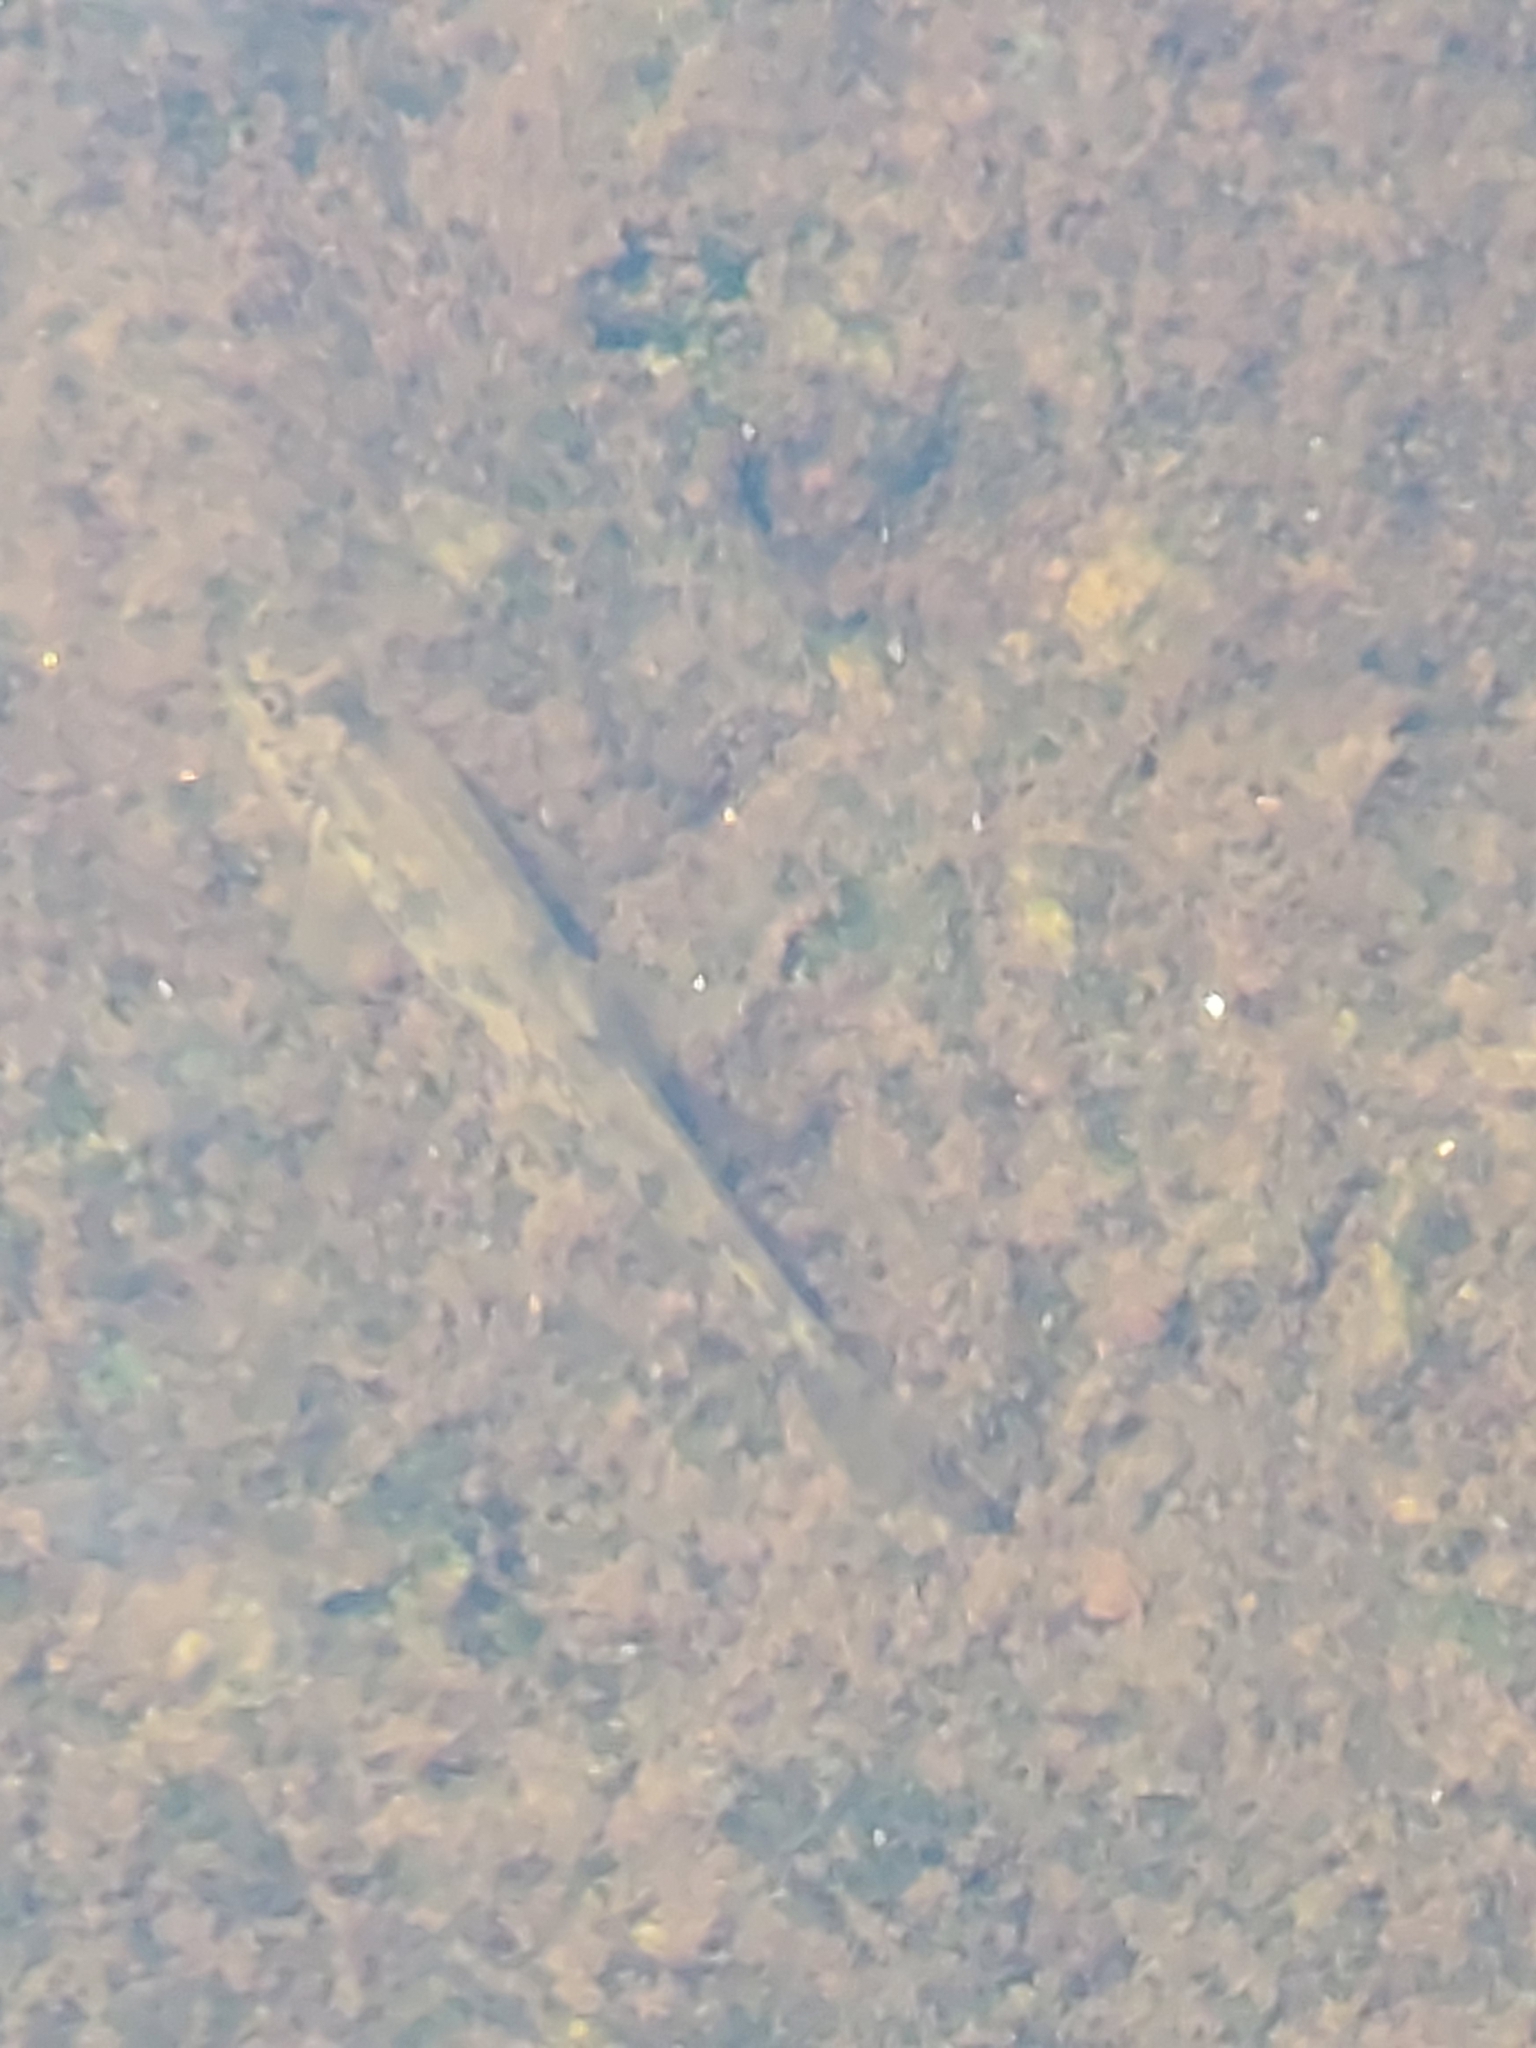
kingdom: Animalia
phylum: Chordata
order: Cypriniformes
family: Nemacheilidae
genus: Barbatula
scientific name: Barbatula barbatula
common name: Stone loach
